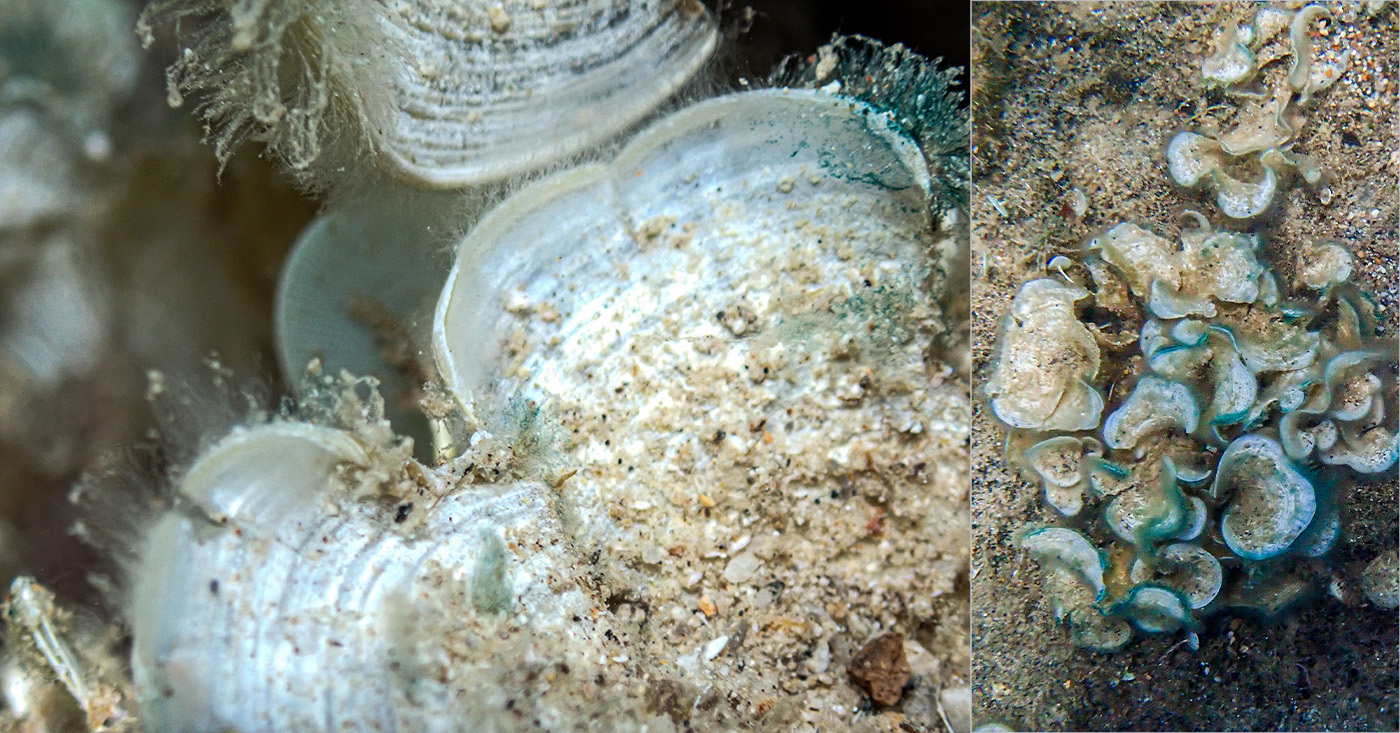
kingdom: Chromista
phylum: Ochrophyta
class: Phaeophyceae
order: Dictyotales
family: Dictyotaceae
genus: Padina
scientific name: Padina
